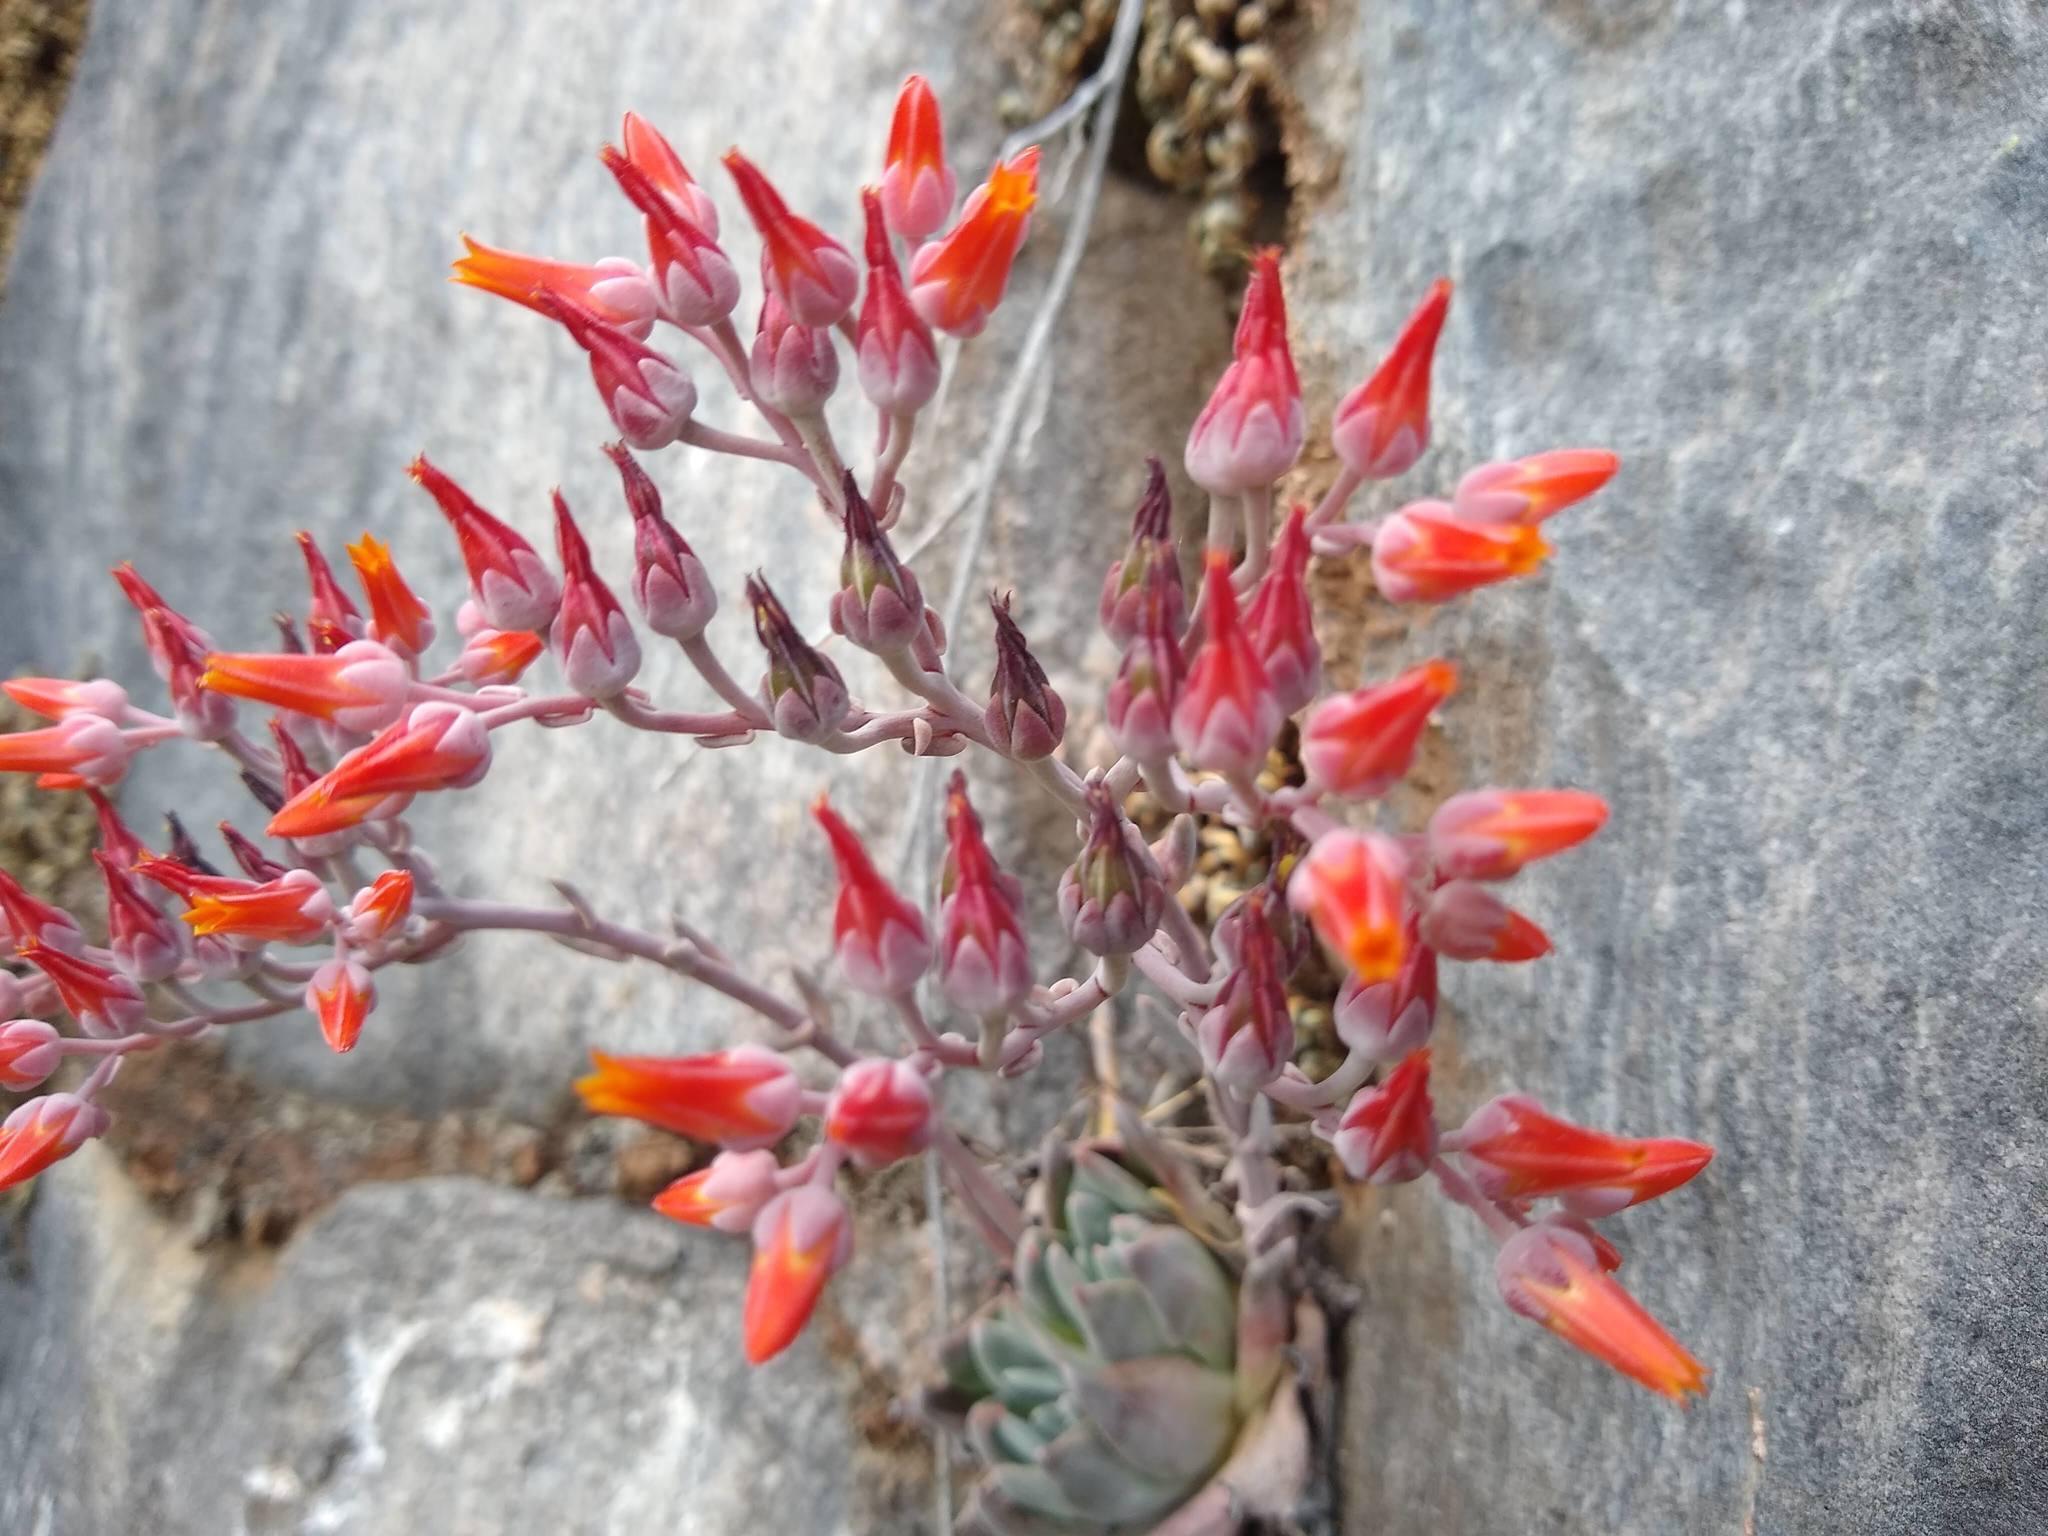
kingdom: Plantae
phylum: Tracheophyta
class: Magnoliopsida
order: Saxifragales
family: Crassulaceae
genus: Dudleya
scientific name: Dudleya cymosa
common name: Canyon dudleya
